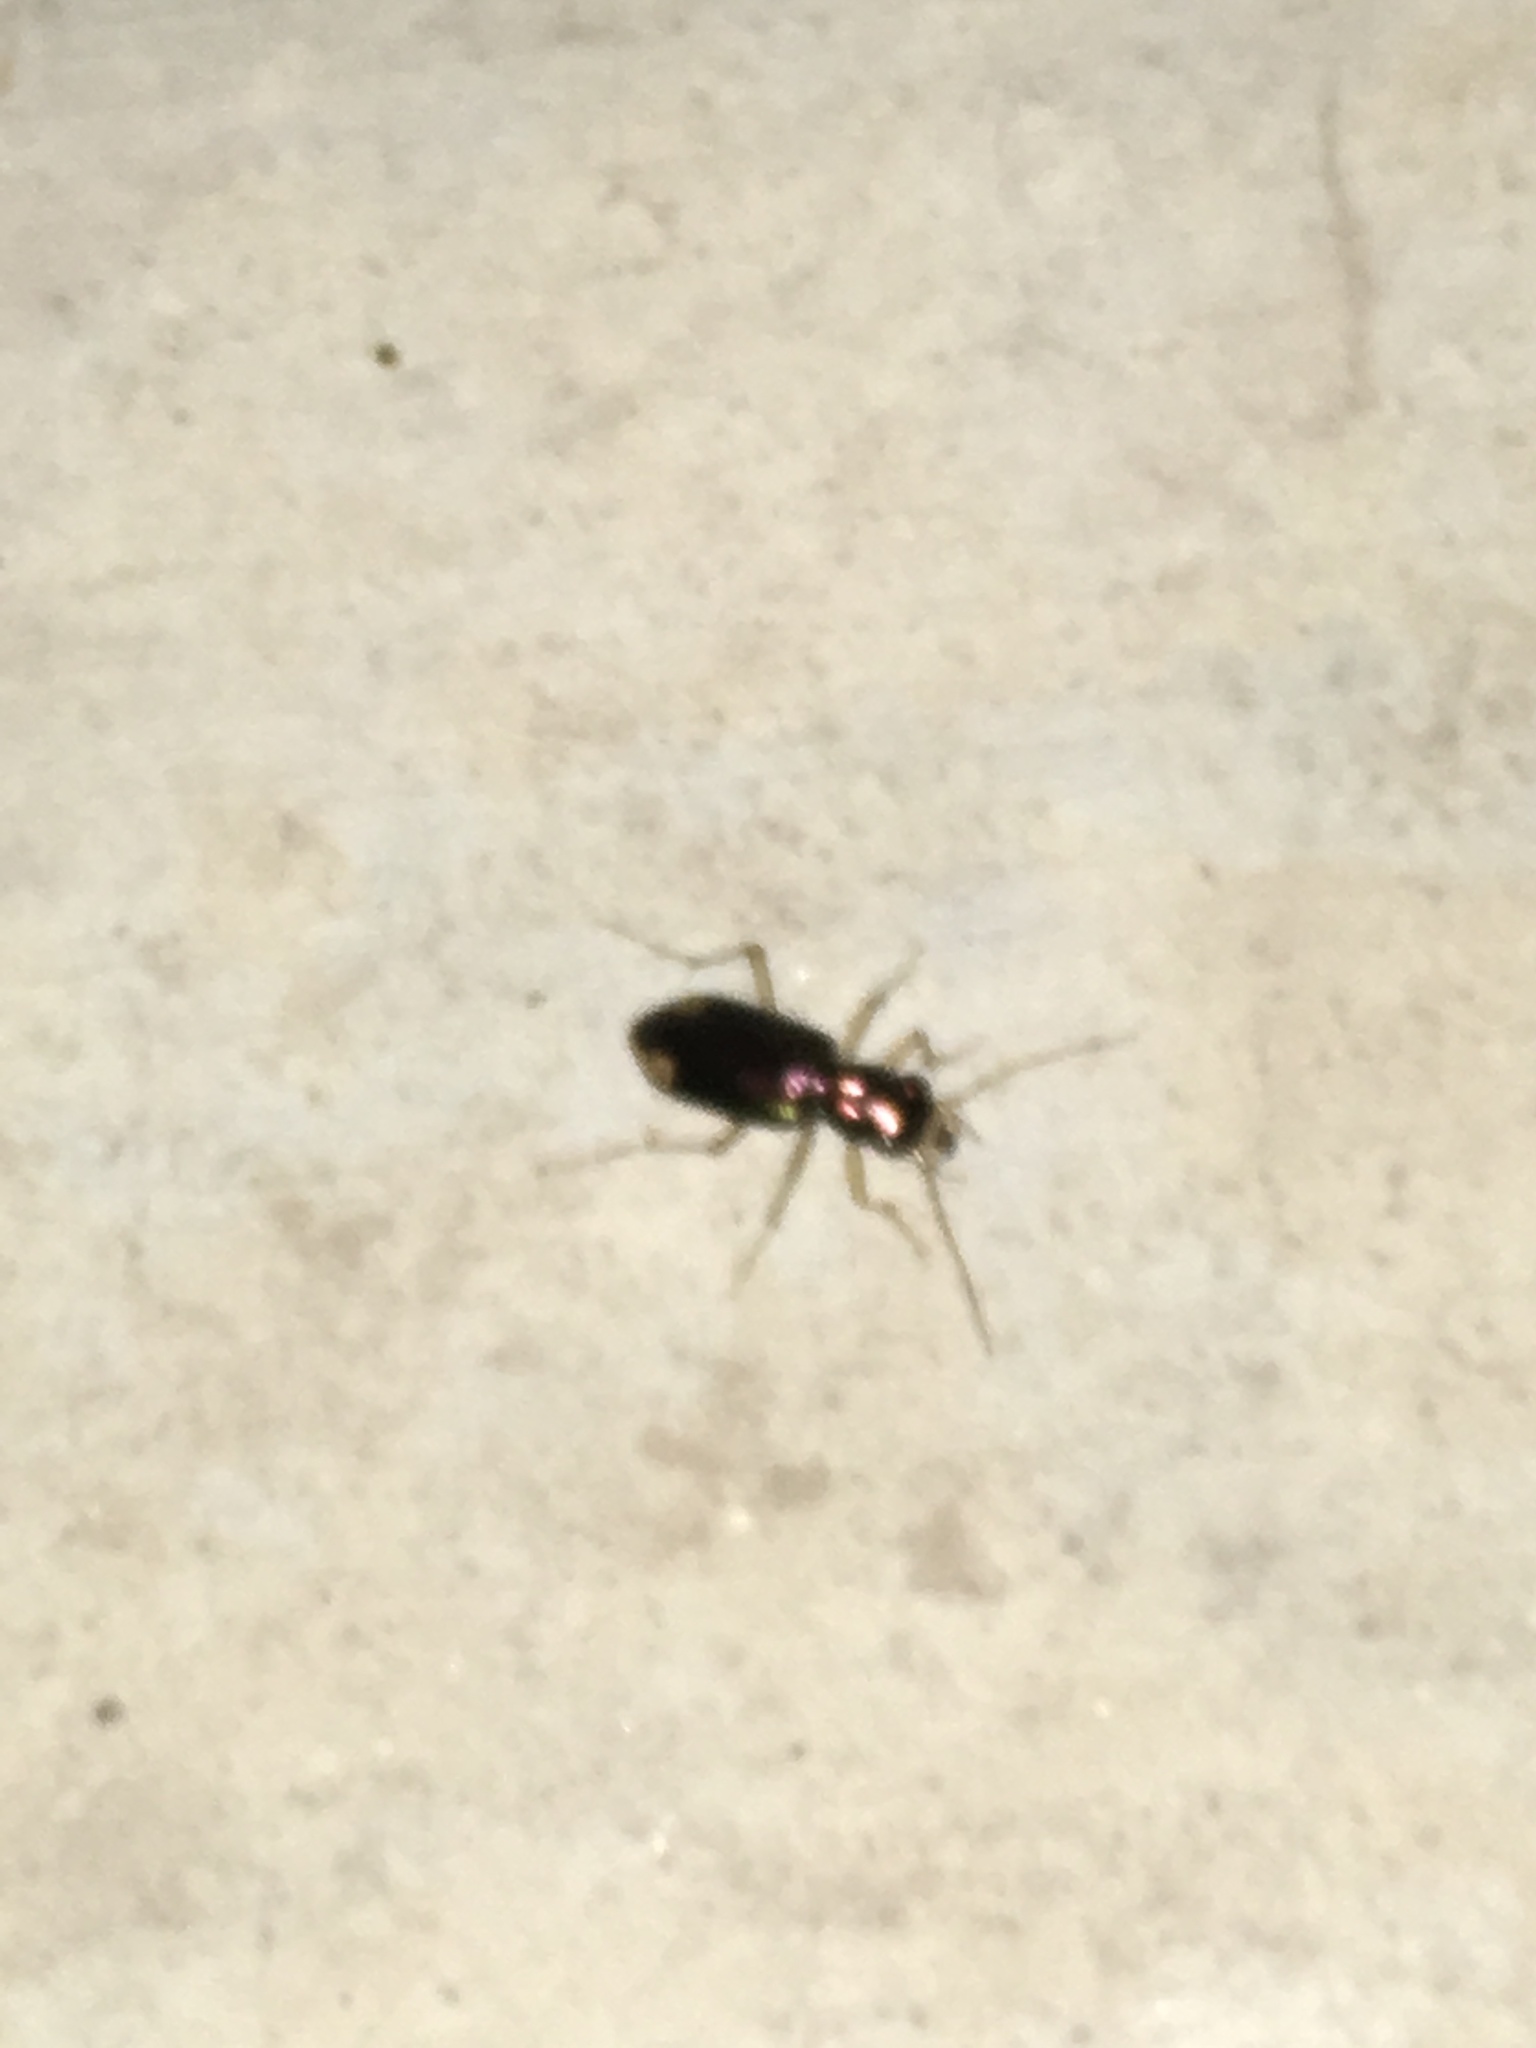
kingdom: Animalia
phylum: Arthropoda
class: Insecta
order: Coleoptera
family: Carabidae
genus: Tetracha
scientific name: Tetracha carolina
